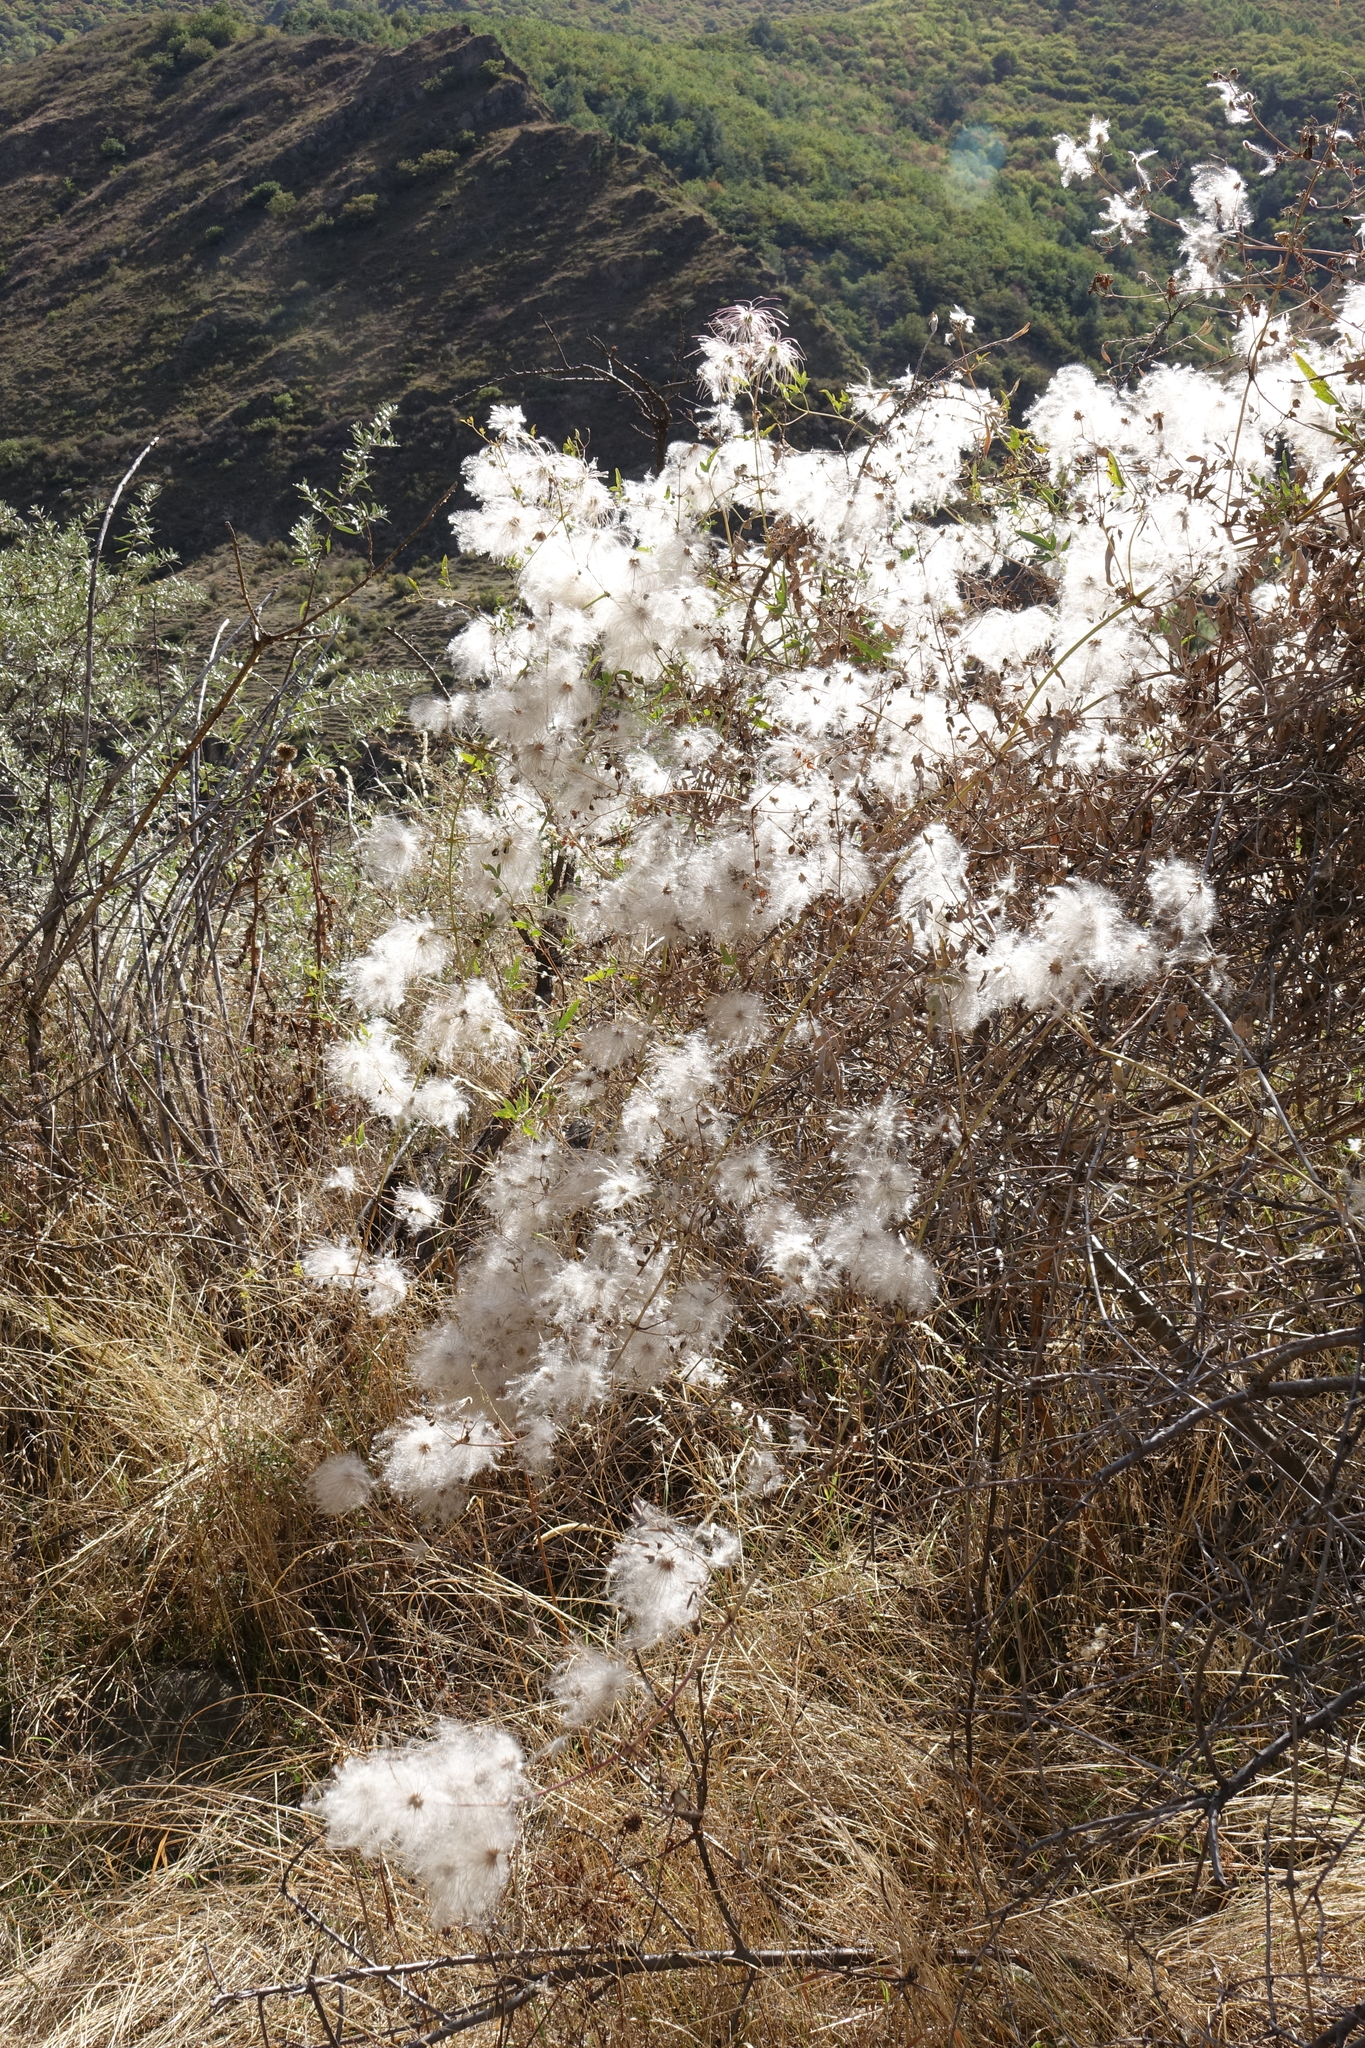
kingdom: Plantae
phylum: Tracheophyta
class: Magnoliopsida
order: Ranunculales
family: Ranunculaceae
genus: Clematis
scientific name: Clematis orientalis
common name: Oriental virgin's-bower
